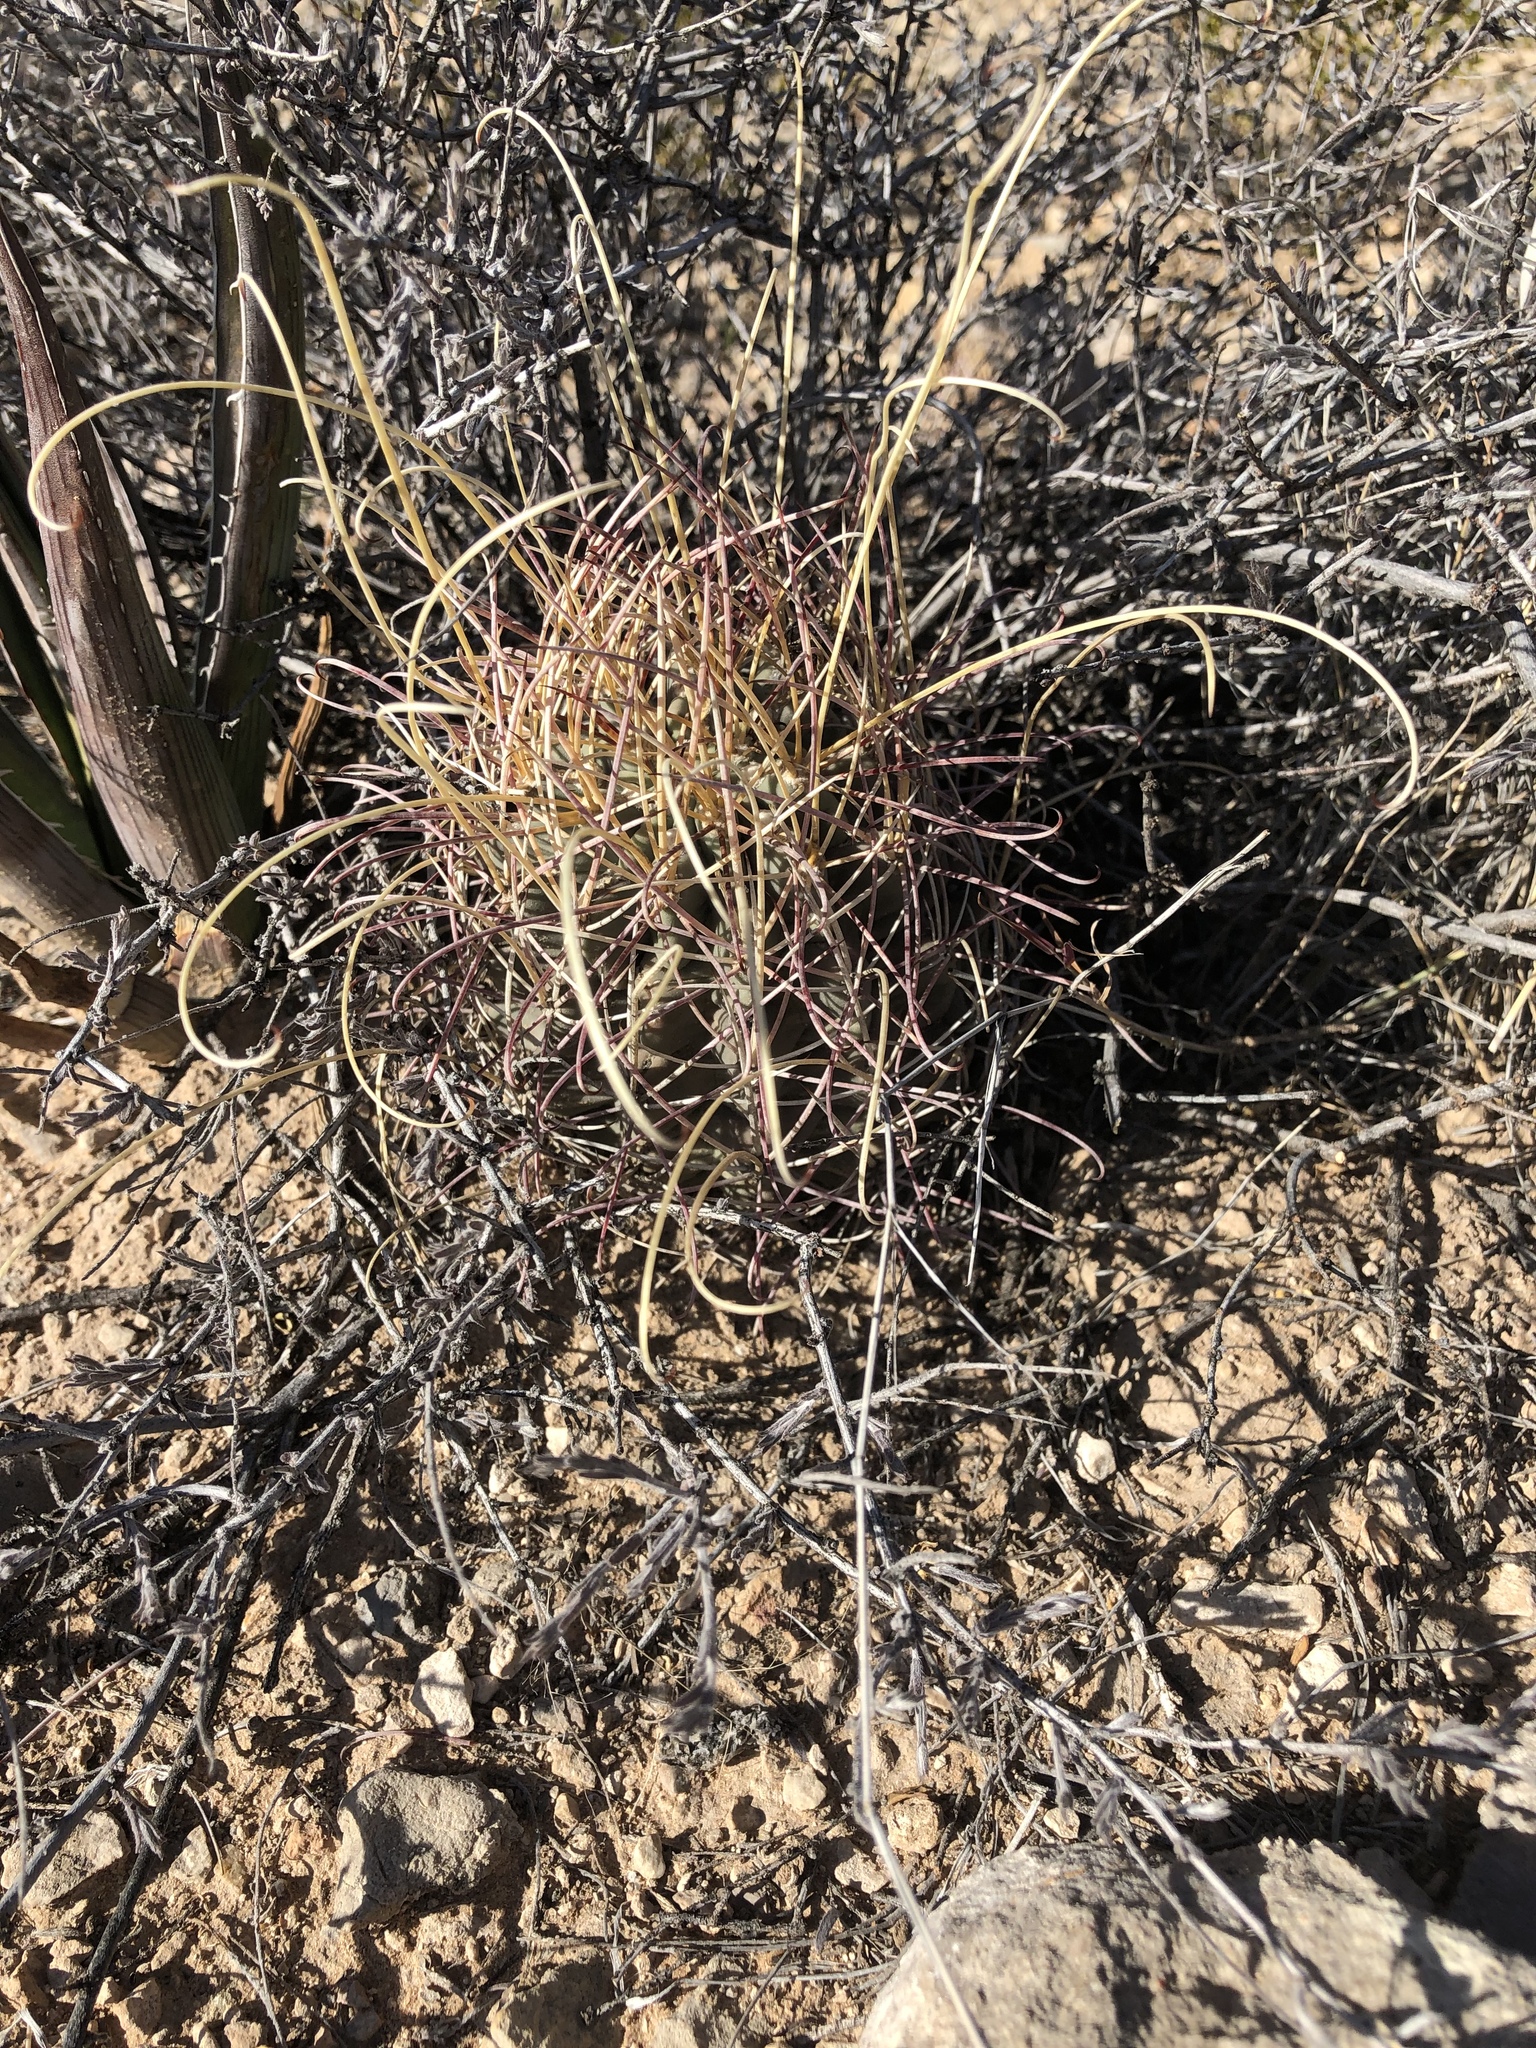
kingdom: Plantae
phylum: Tracheophyta
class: Magnoliopsida
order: Caryophyllales
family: Cactaceae
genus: Ferocactus
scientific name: Ferocactus uncinatus
